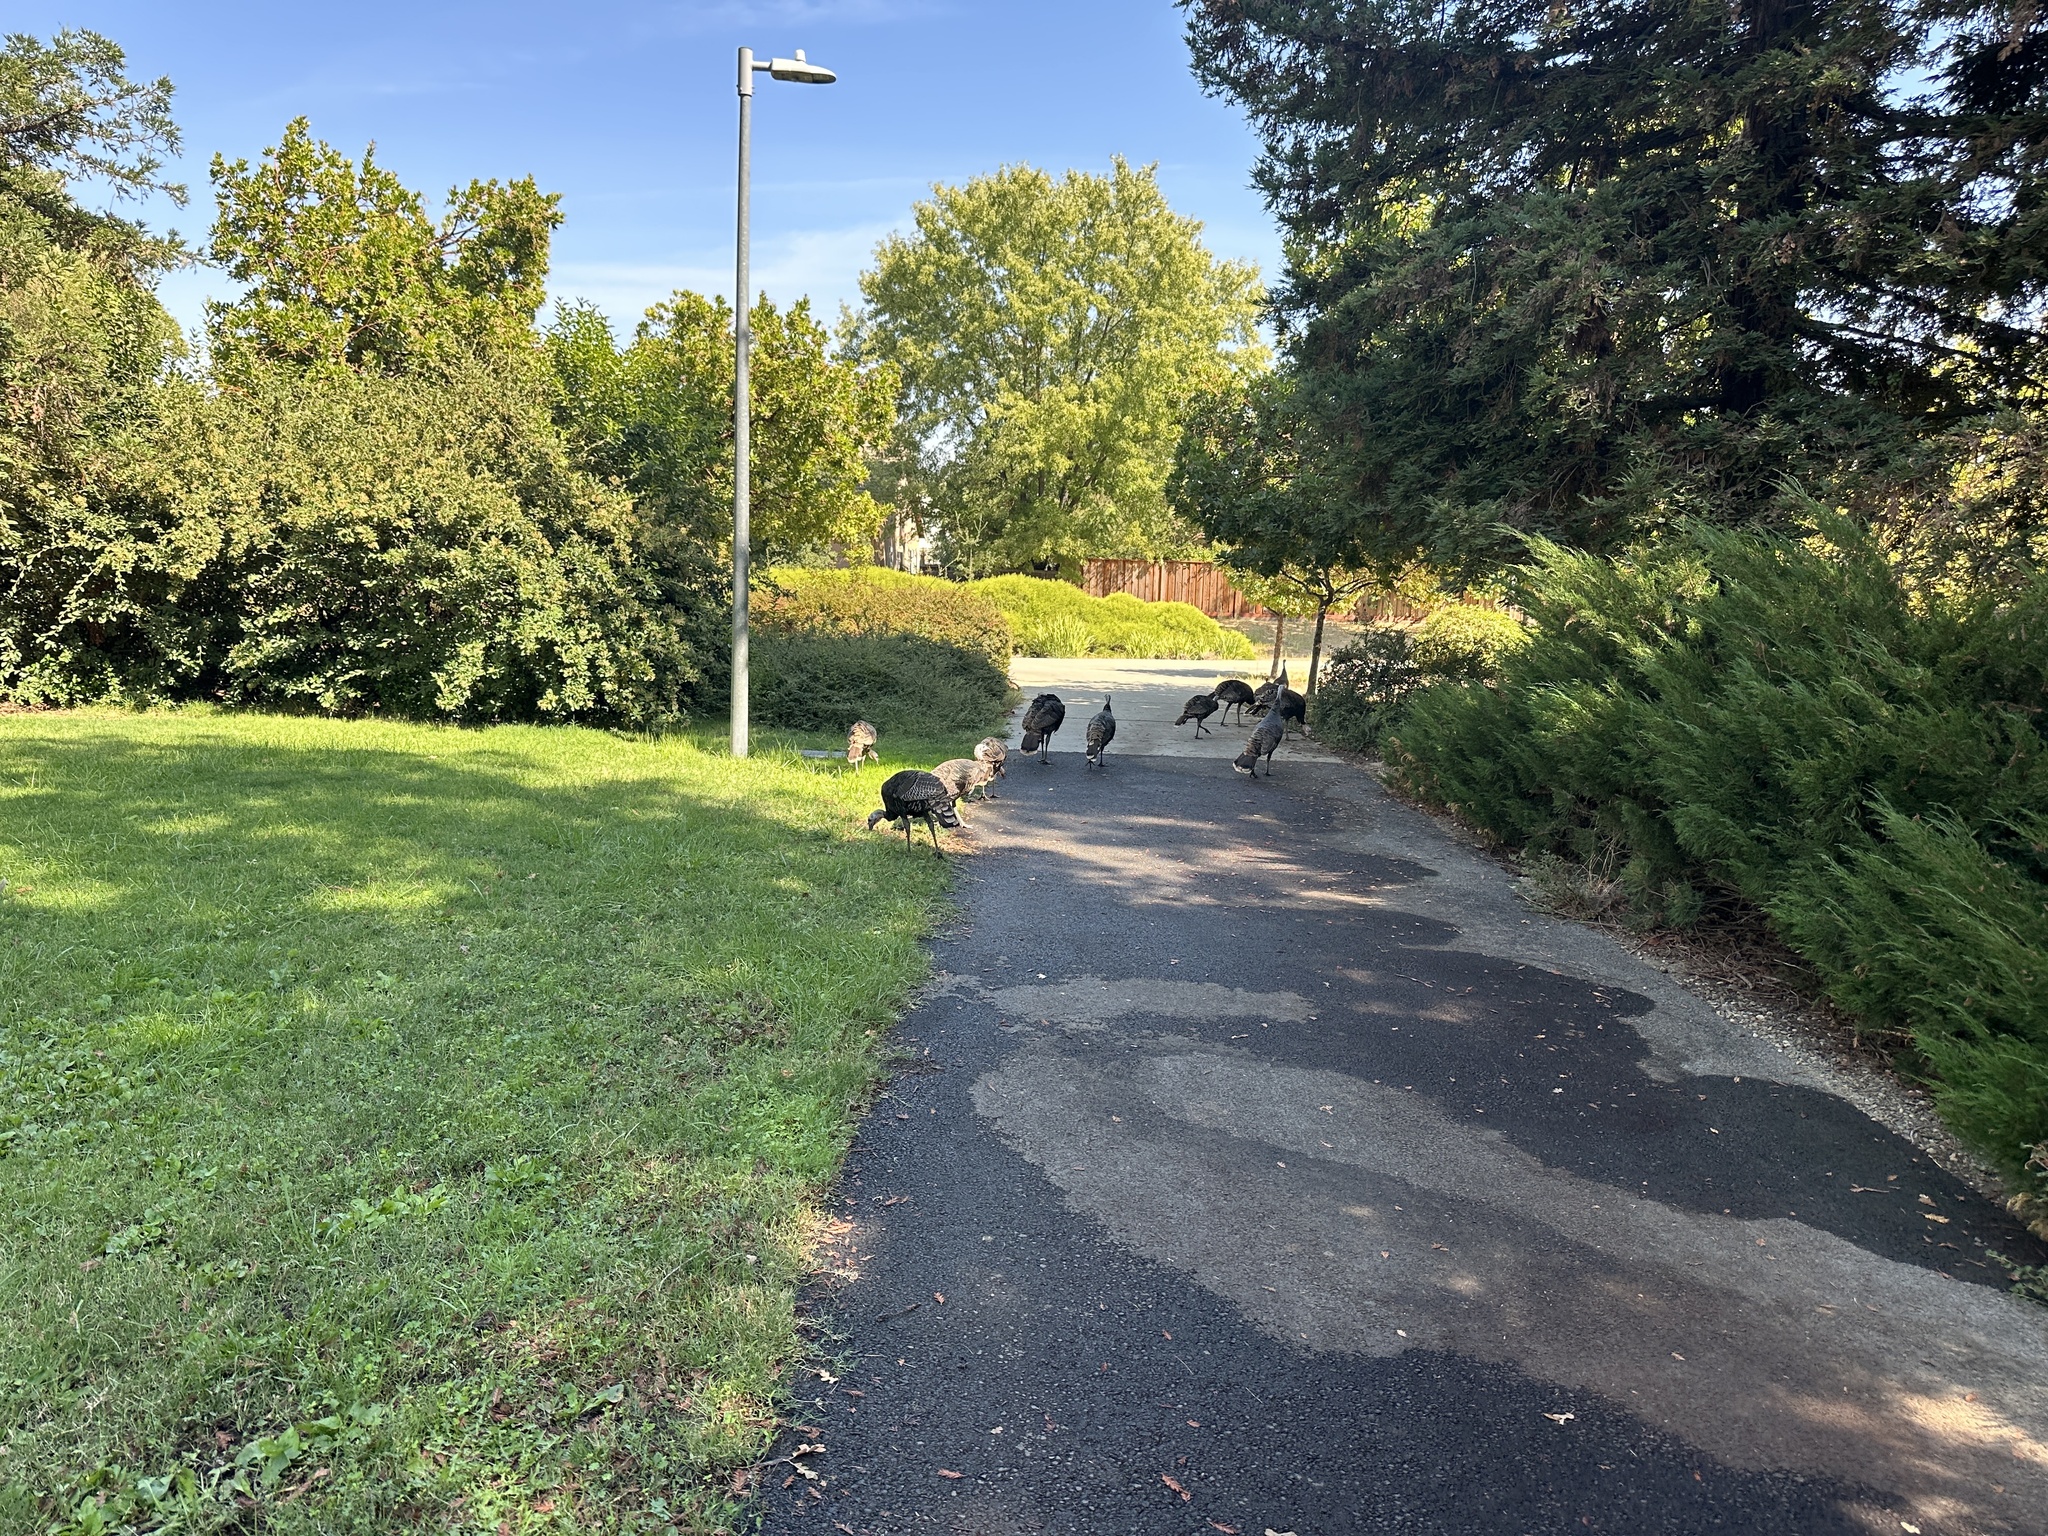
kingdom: Animalia
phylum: Chordata
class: Aves
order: Galliformes
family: Phasianidae
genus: Meleagris
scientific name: Meleagris gallopavo
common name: Wild turkey
